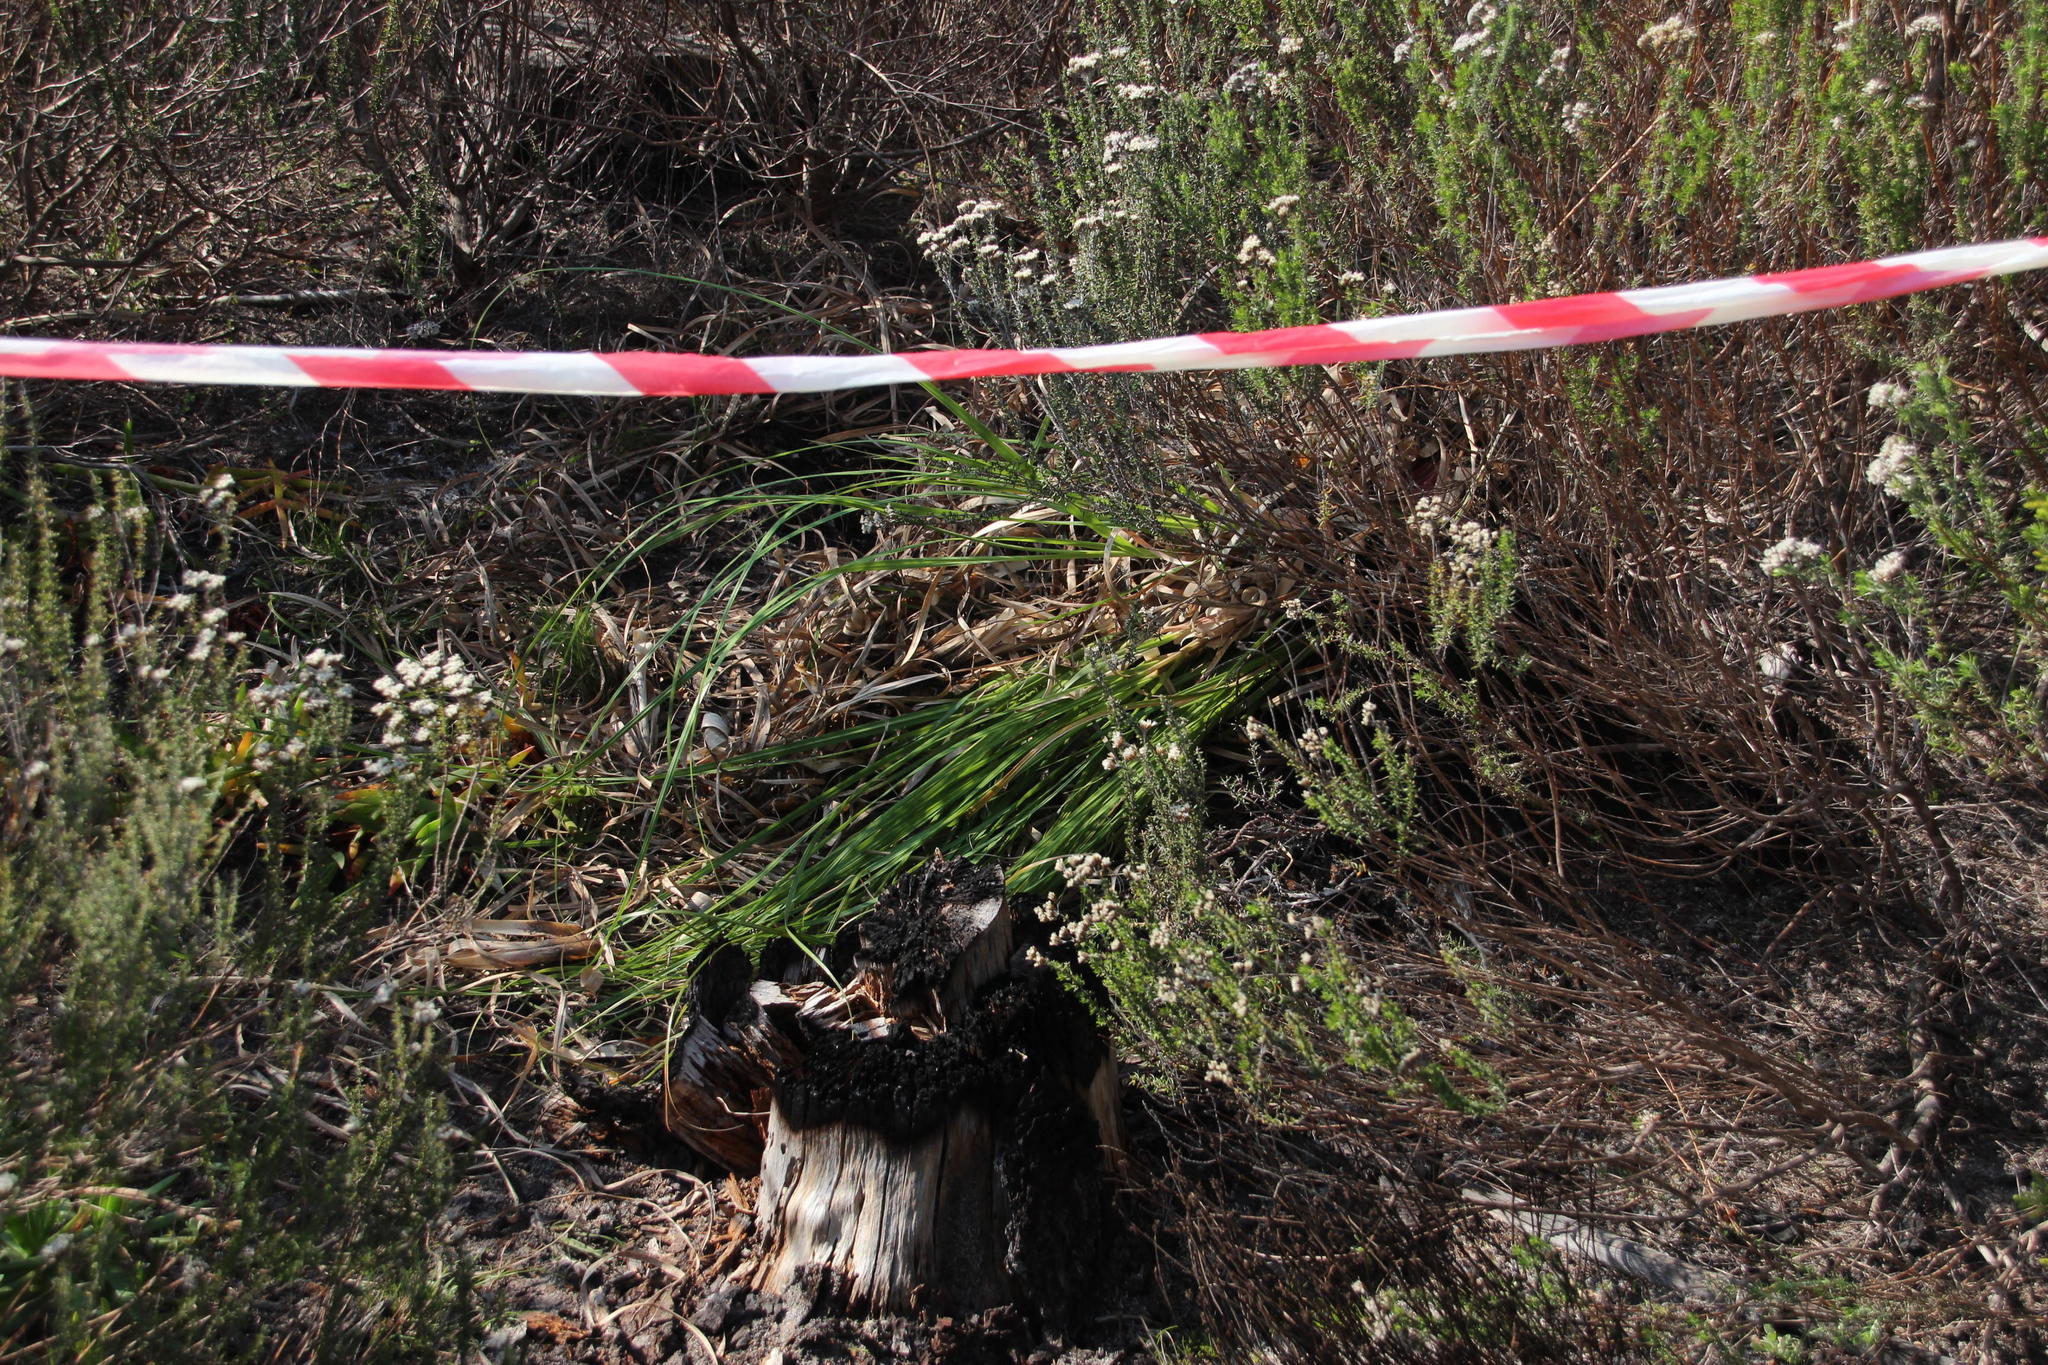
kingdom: Plantae
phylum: Tracheophyta
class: Liliopsida
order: Poales
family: Poaceae
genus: Cortaderia
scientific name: Cortaderia selloana
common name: Uruguayan pampas grass
